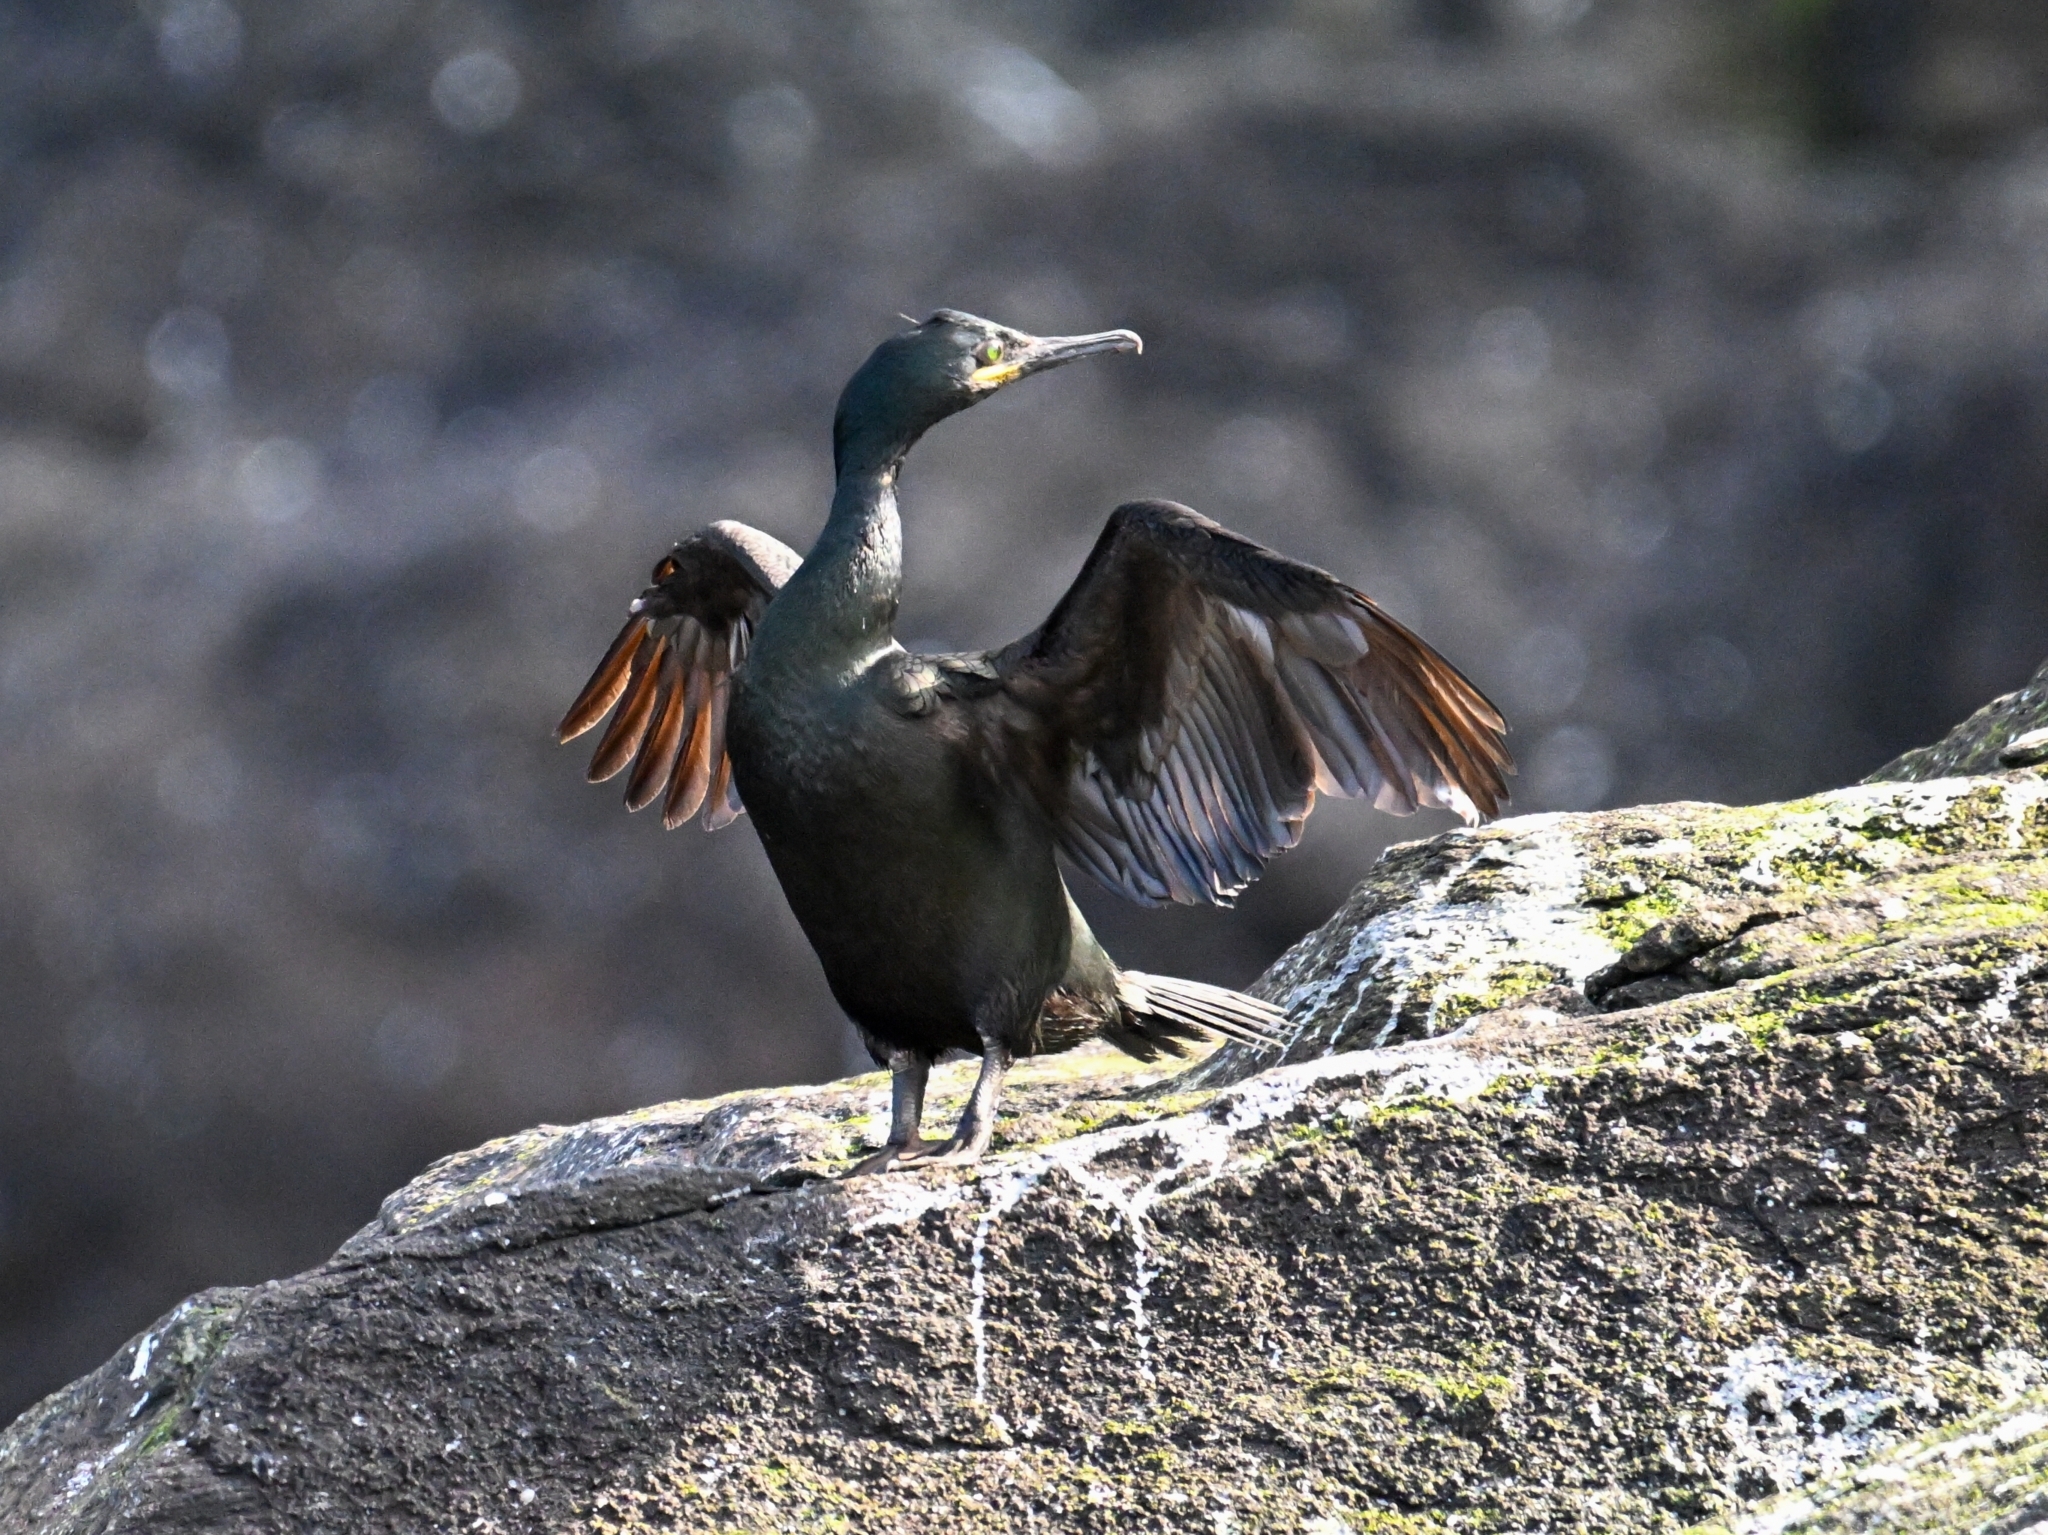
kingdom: Animalia
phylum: Chordata
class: Aves
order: Suliformes
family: Phalacrocoracidae
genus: Phalacrocorax
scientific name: Phalacrocorax aristotelis
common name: European shag
